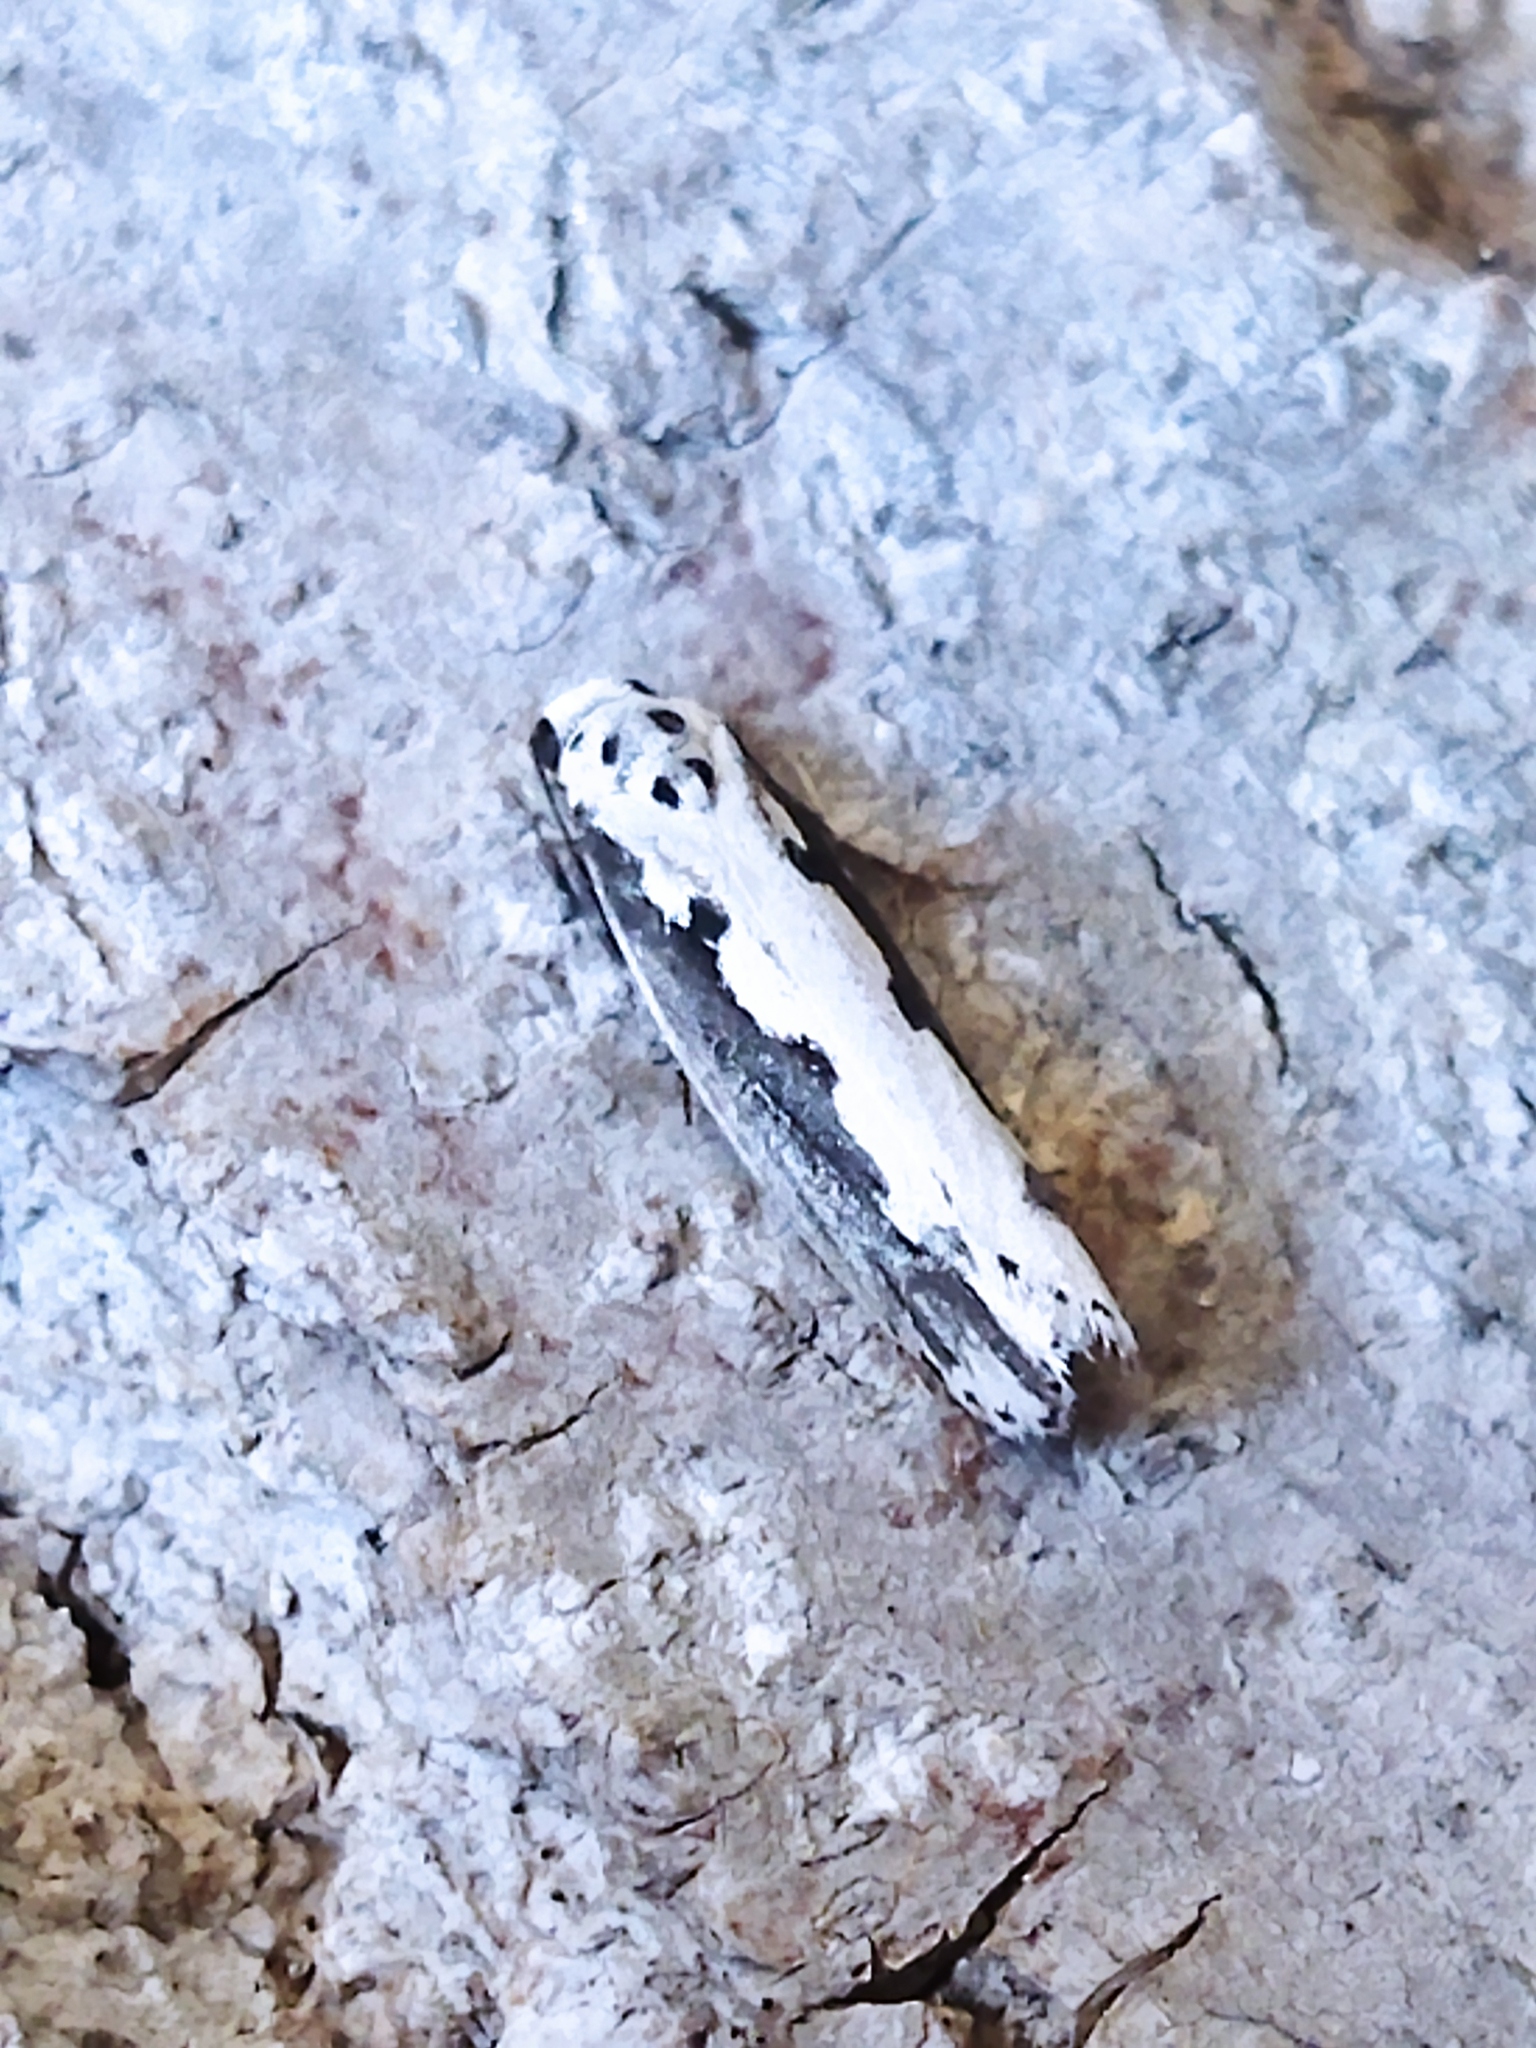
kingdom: Animalia
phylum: Arthropoda
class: Insecta
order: Lepidoptera
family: Ethmiidae
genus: Ethmia
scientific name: Ethmia bipunctella
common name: Bordered ermel
